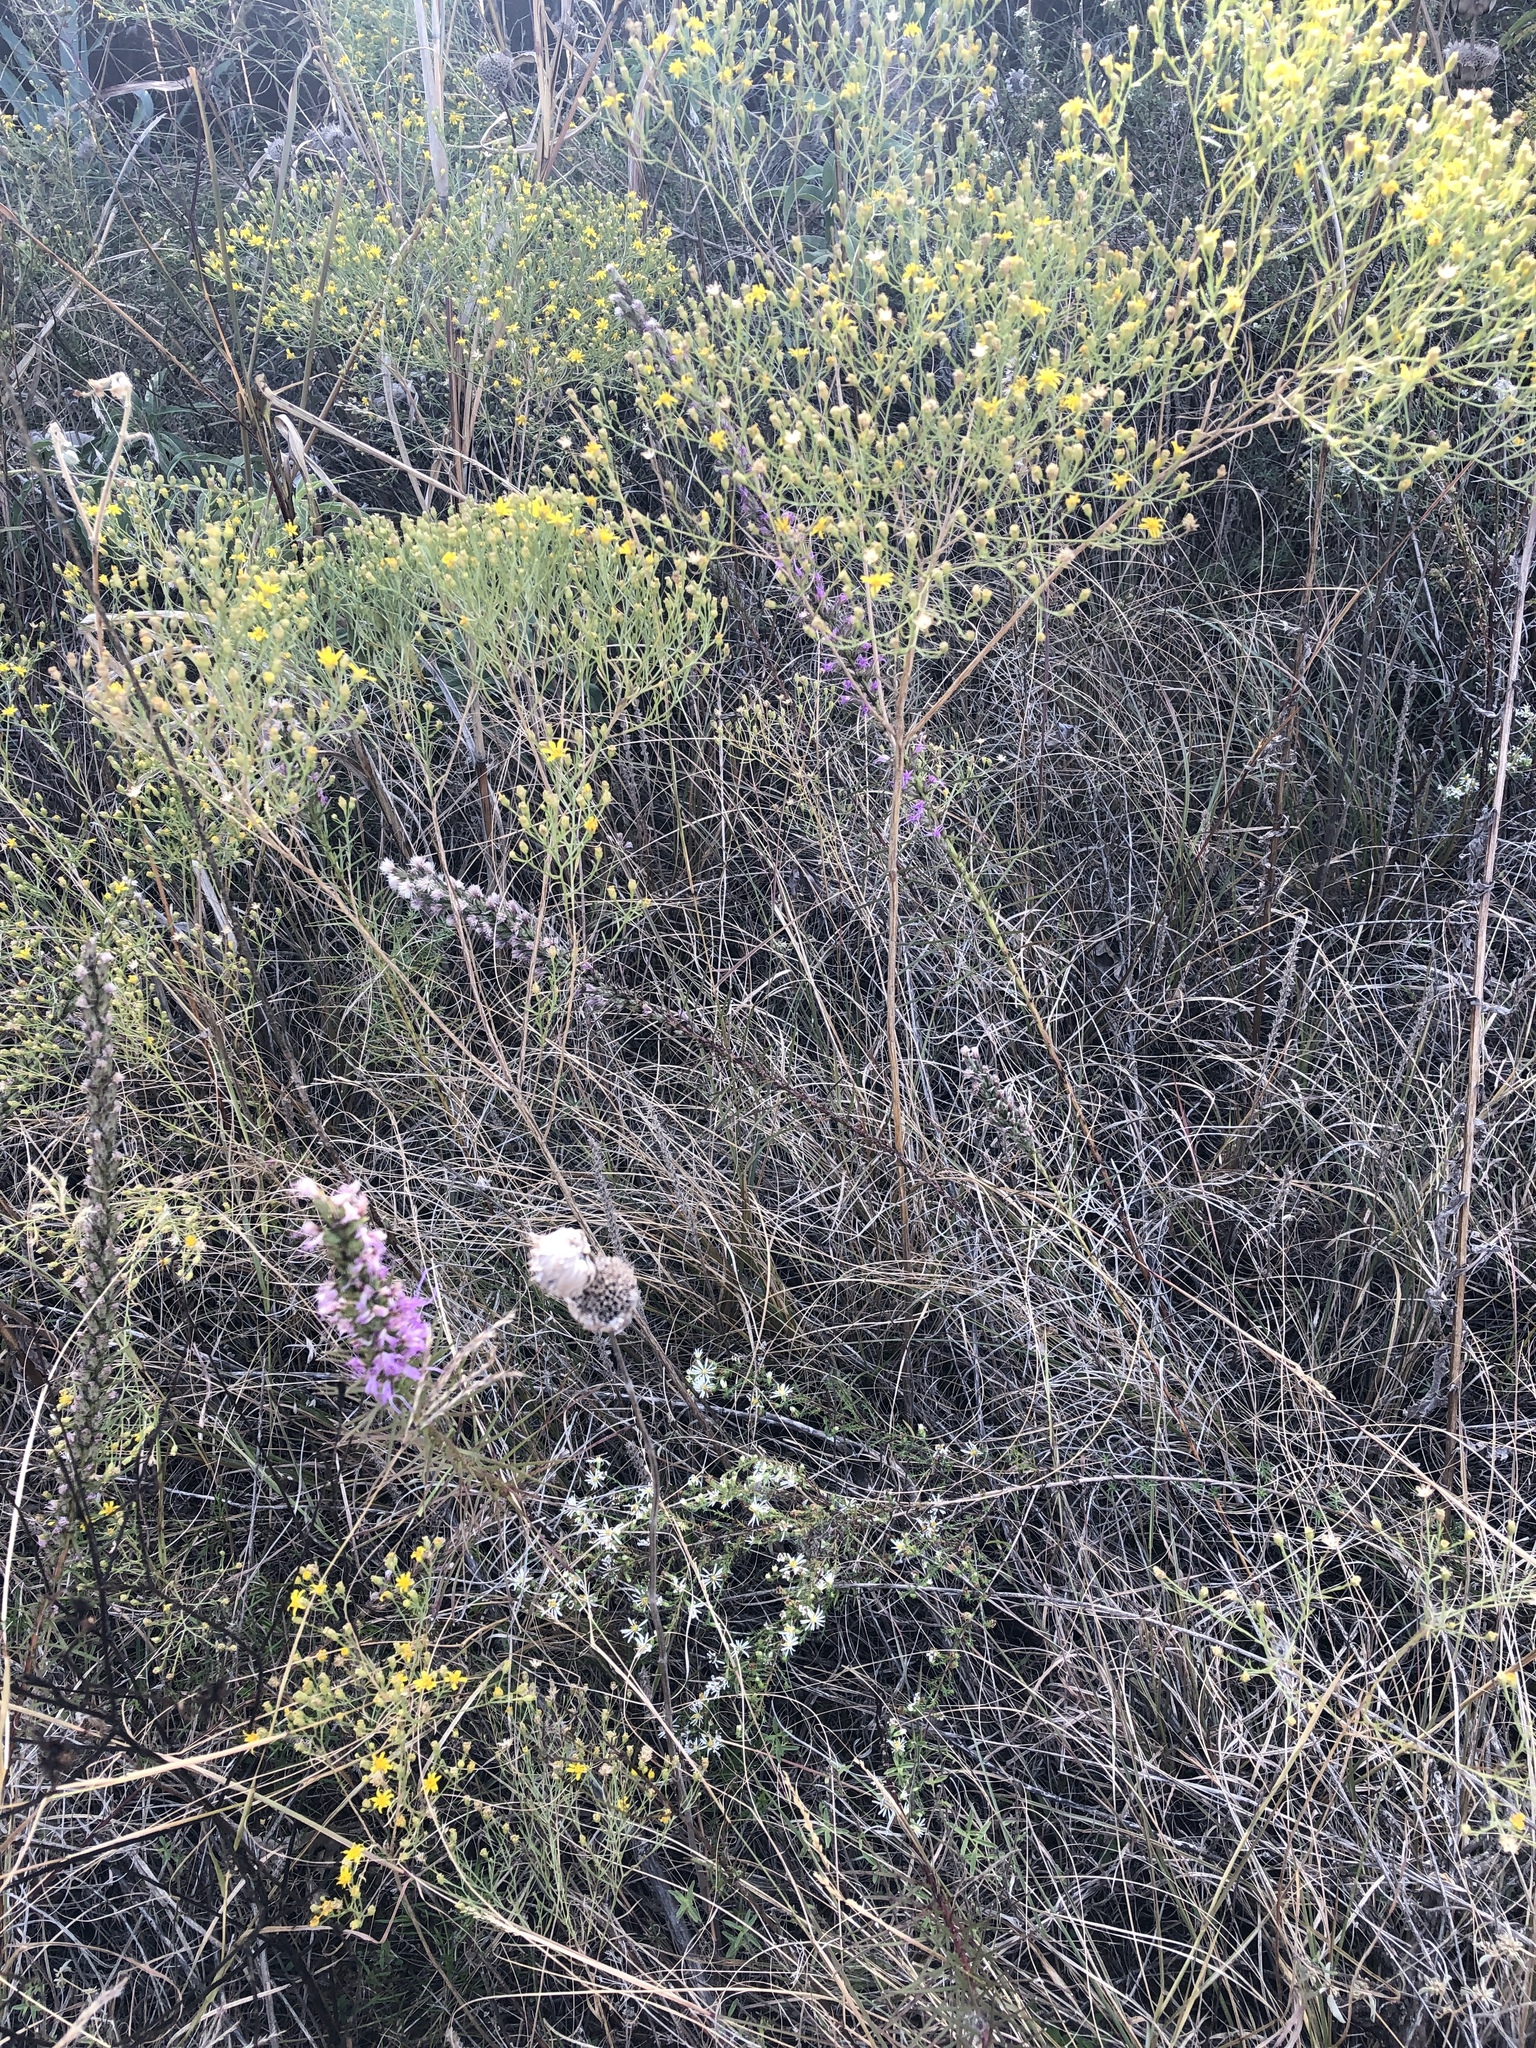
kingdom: Plantae
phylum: Tracheophyta
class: Magnoliopsida
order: Asterales
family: Asteraceae
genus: Liatris
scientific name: Liatris punctata
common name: Dotted gayfeather
